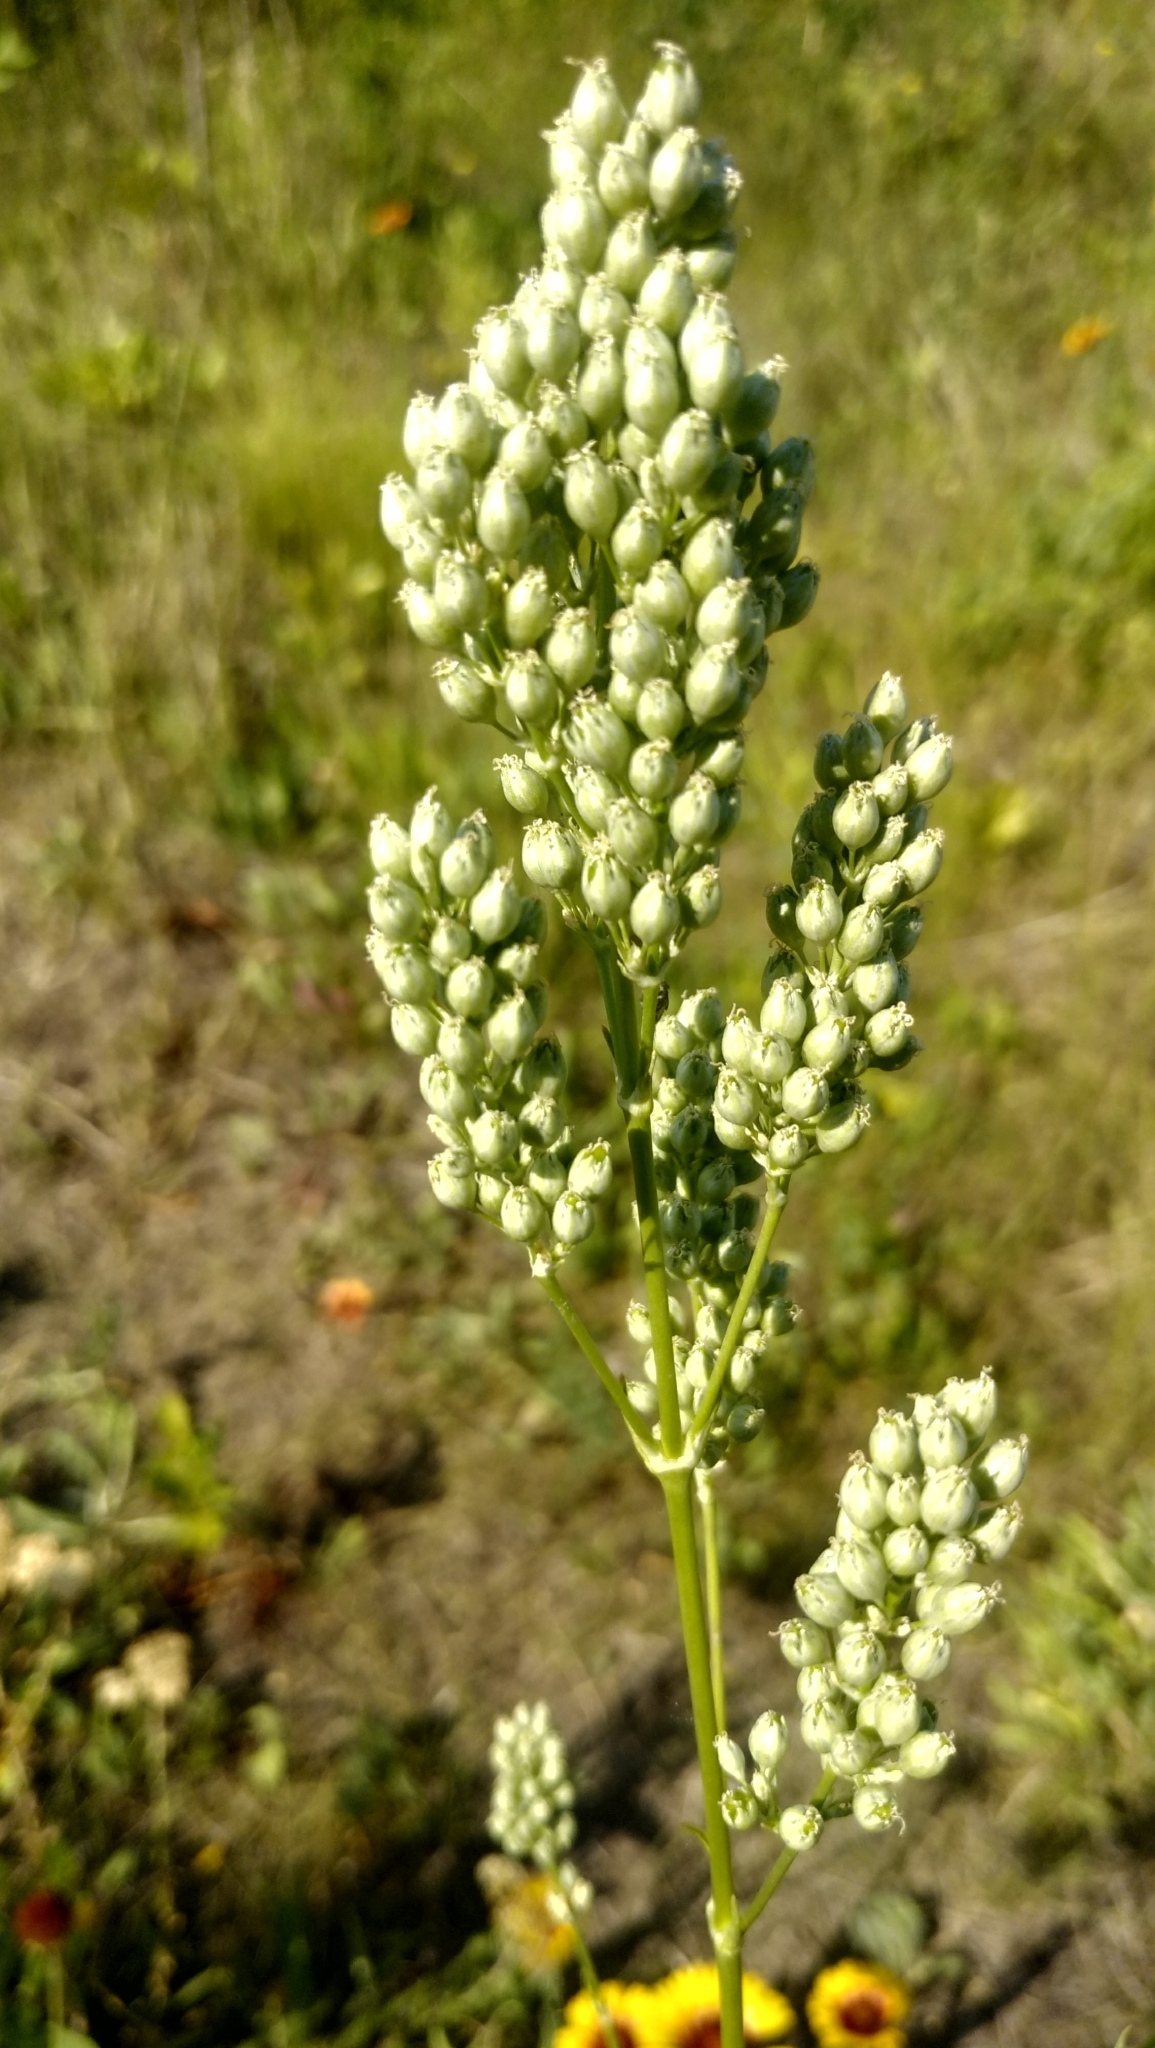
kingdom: Plantae
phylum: Tracheophyta
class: Magnoliopsida
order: Caryophyllales
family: Caryophyllaceae
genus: Silene
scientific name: Silene chersonensis
